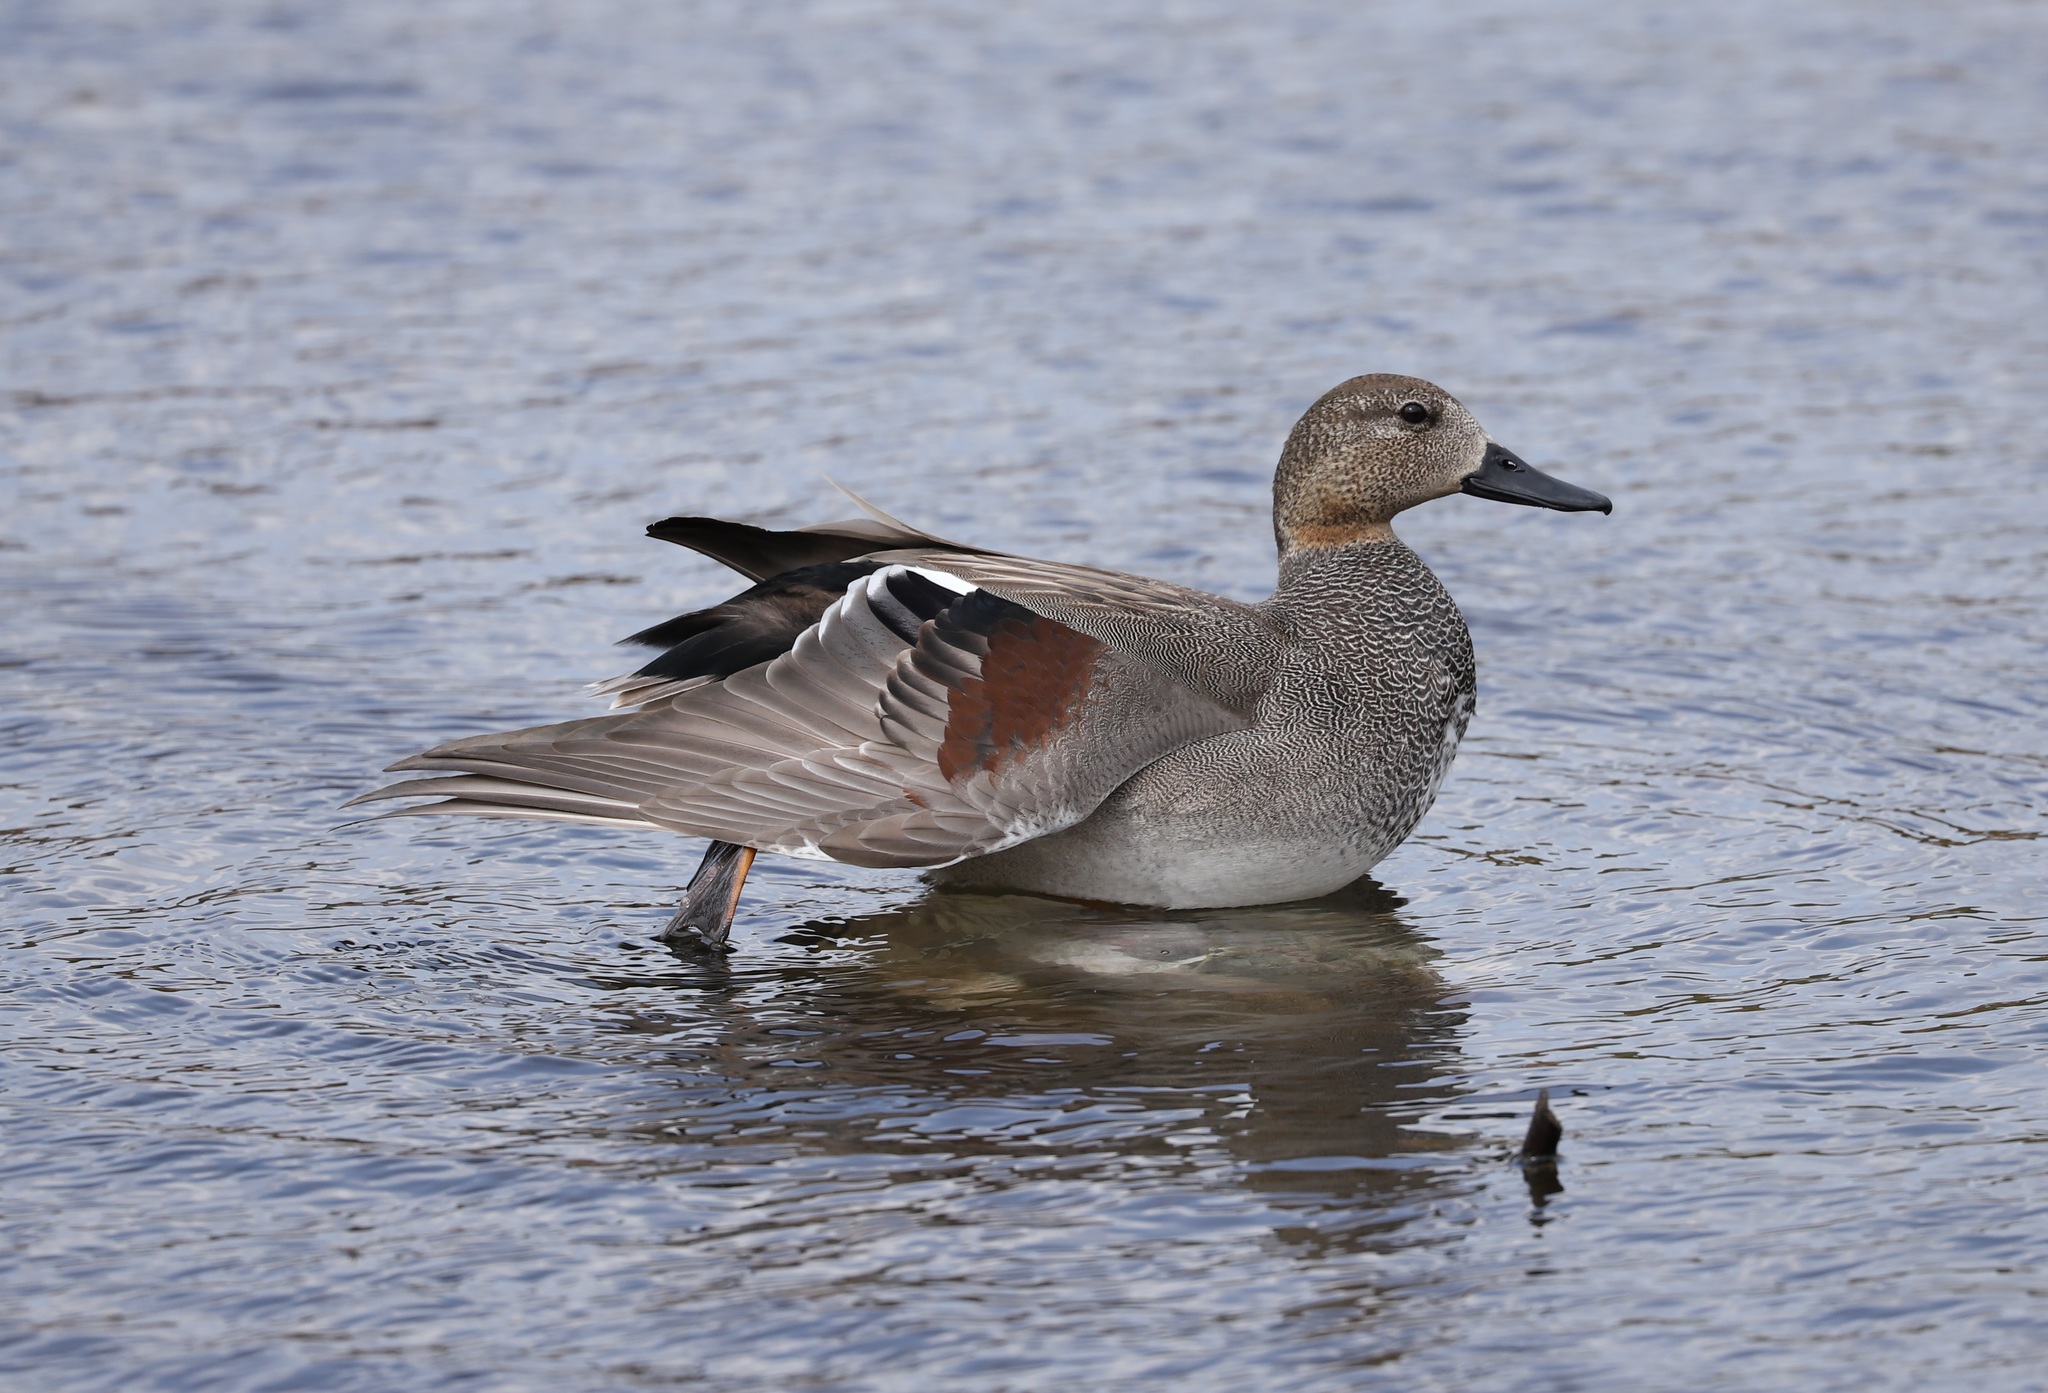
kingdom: Animalia
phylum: Chordata
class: Aves
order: Anseriformes
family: Anatidae
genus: Mareca
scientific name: Mareca strepera
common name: Gadwall
